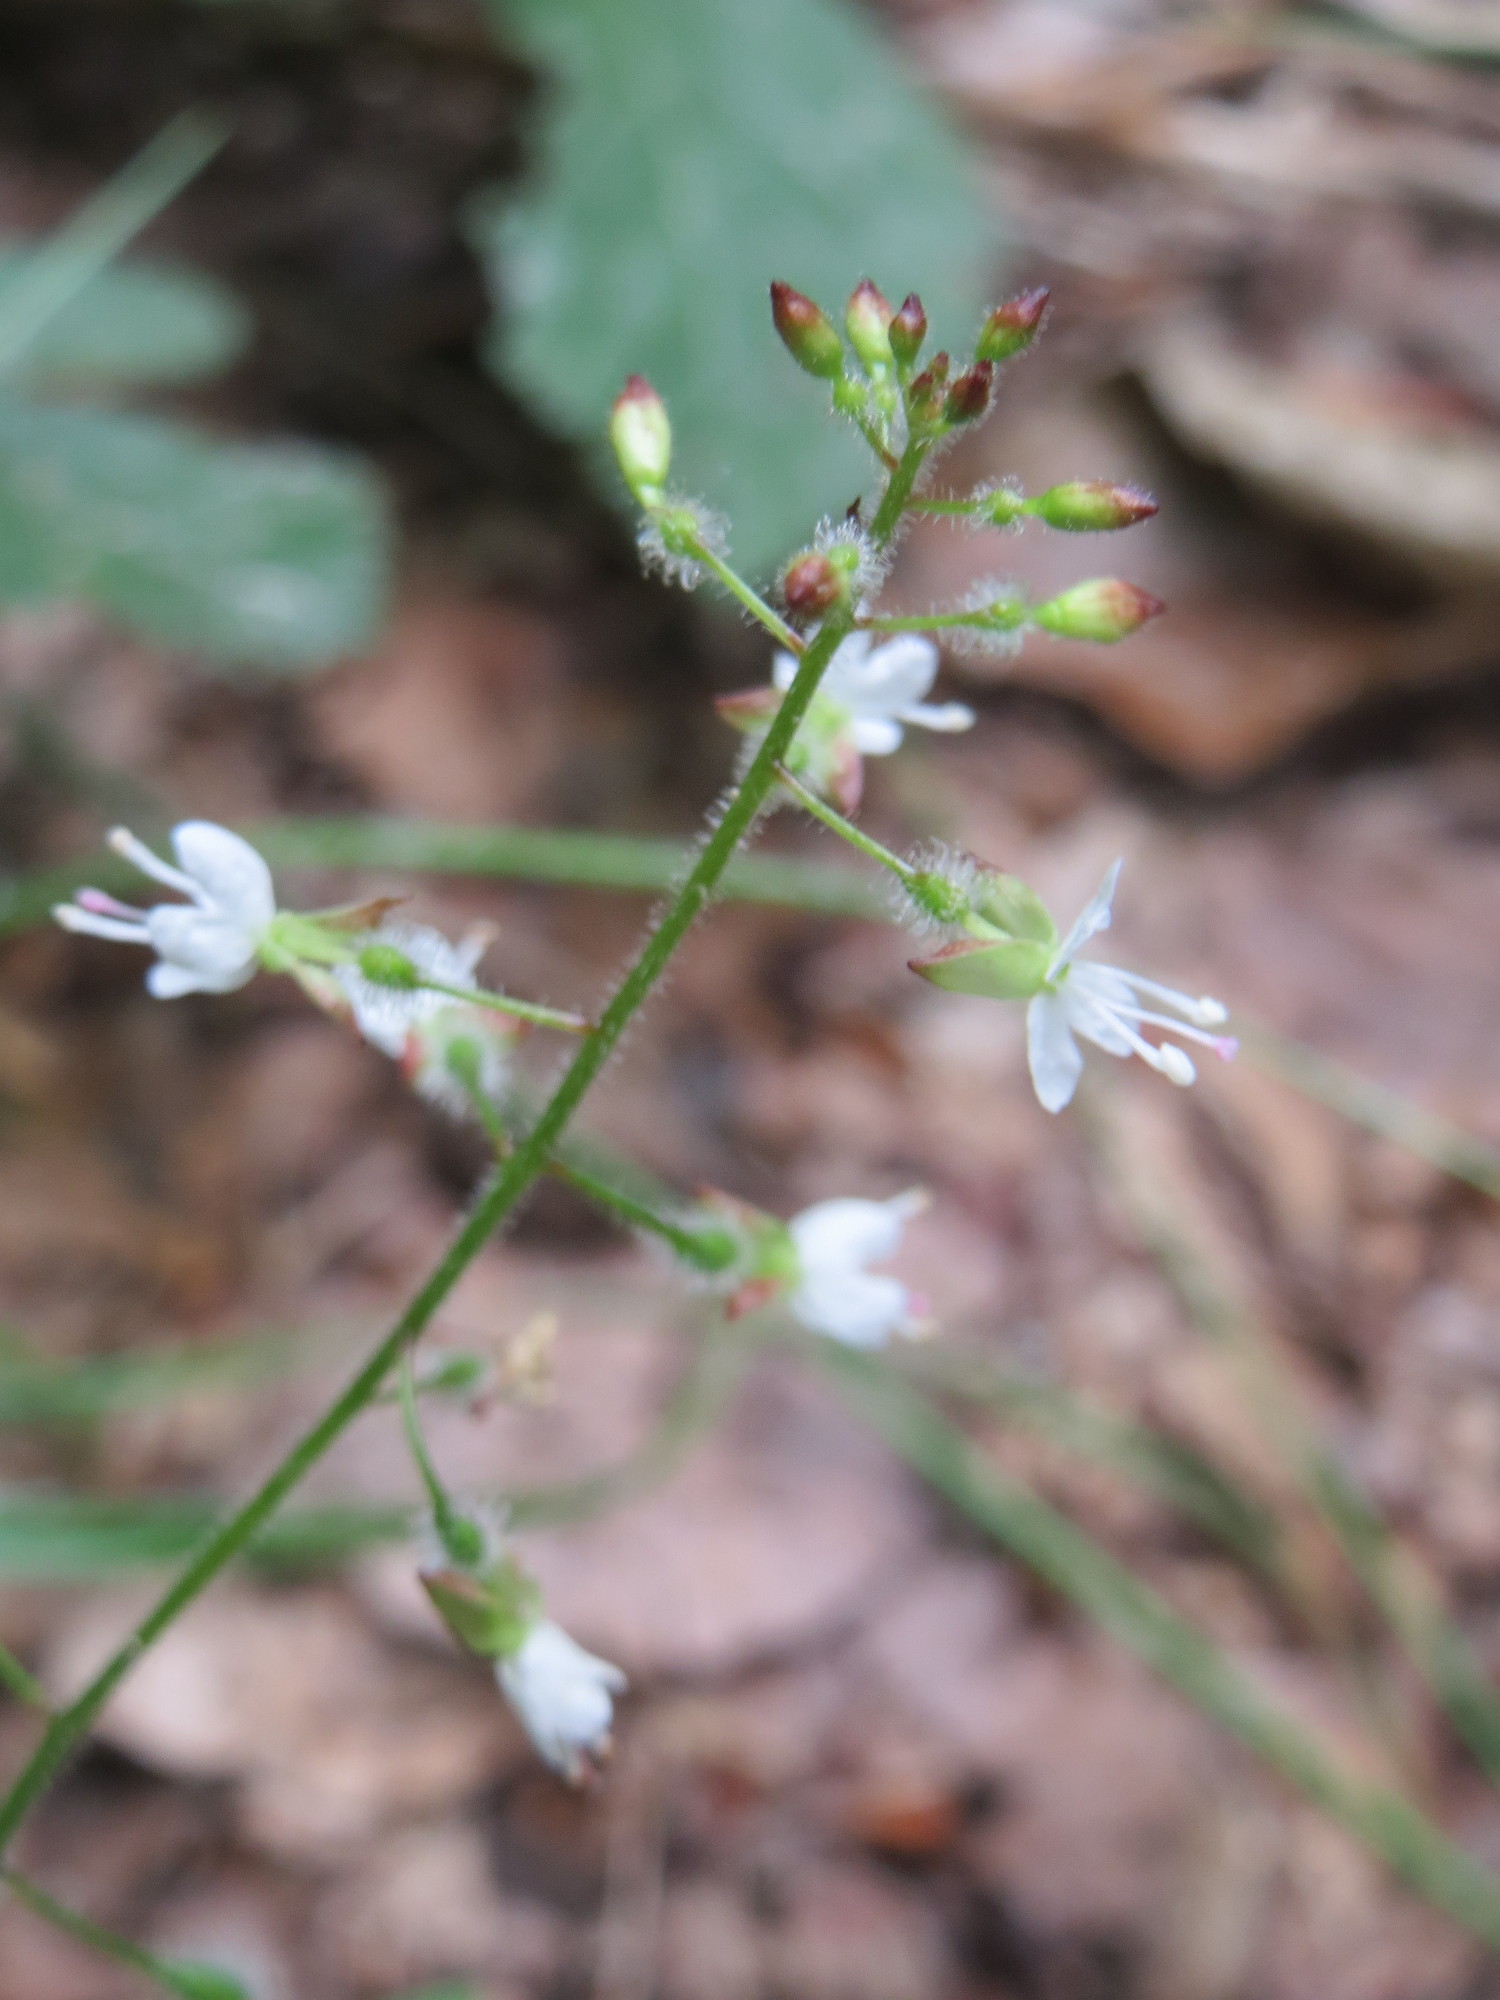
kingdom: Plantae
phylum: Tracheophyta
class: Magnoliopsida
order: Myrtales
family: Onagraceae
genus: Circaea
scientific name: Circaea lutetiana
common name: Enchanter's-nightshade
